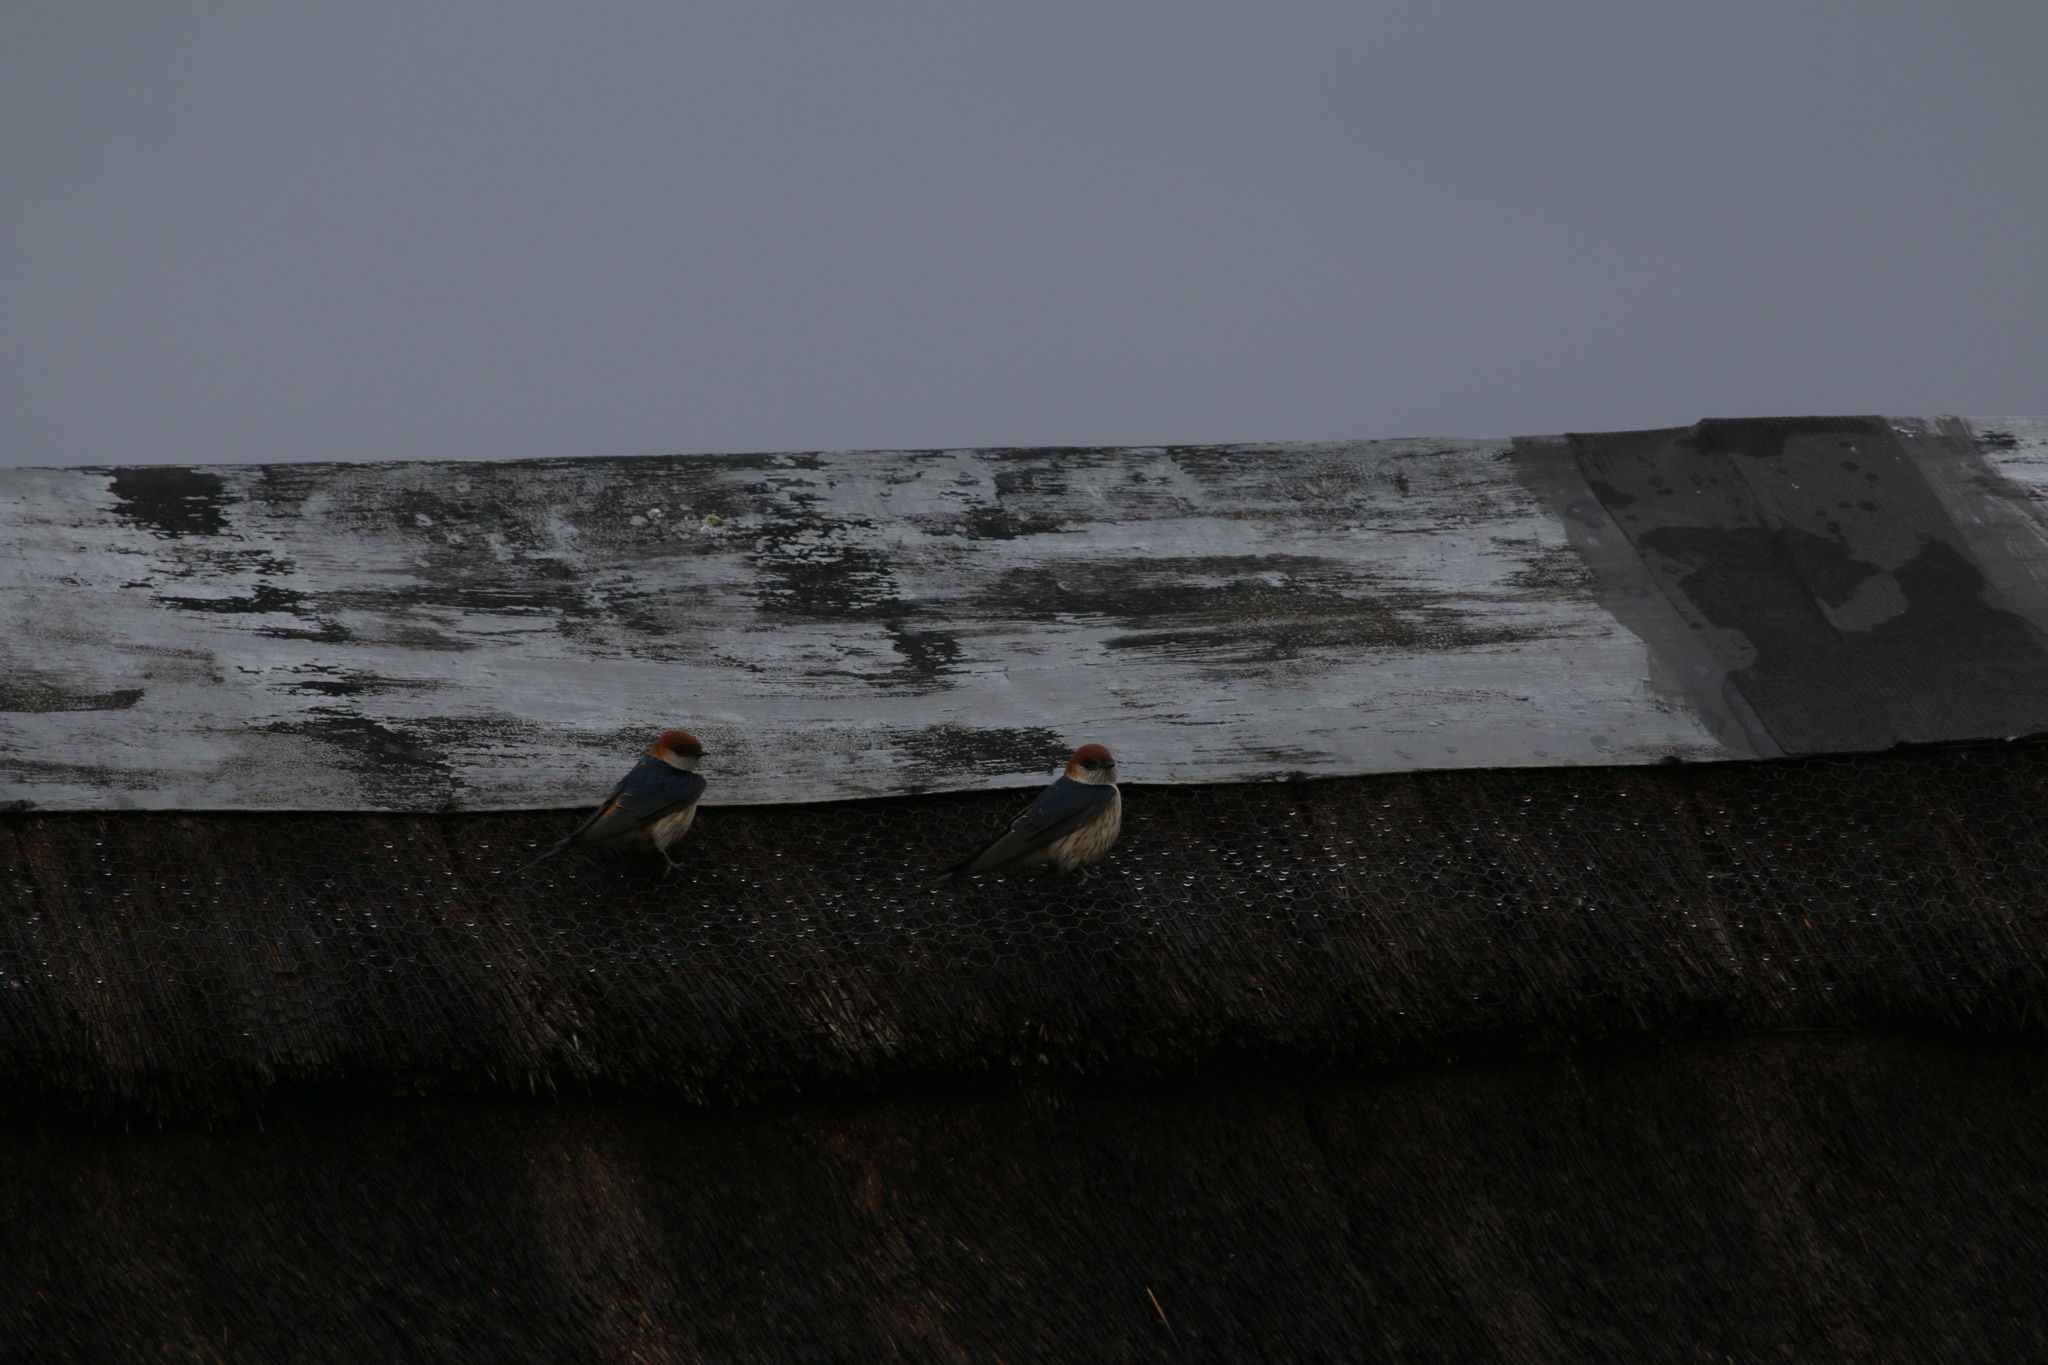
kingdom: Animalia
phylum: Chordata
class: Aves
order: Passeriformes
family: Hirundinidae
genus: Cecropis
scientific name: Cecropis cucullata
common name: Greater striped-swallow
